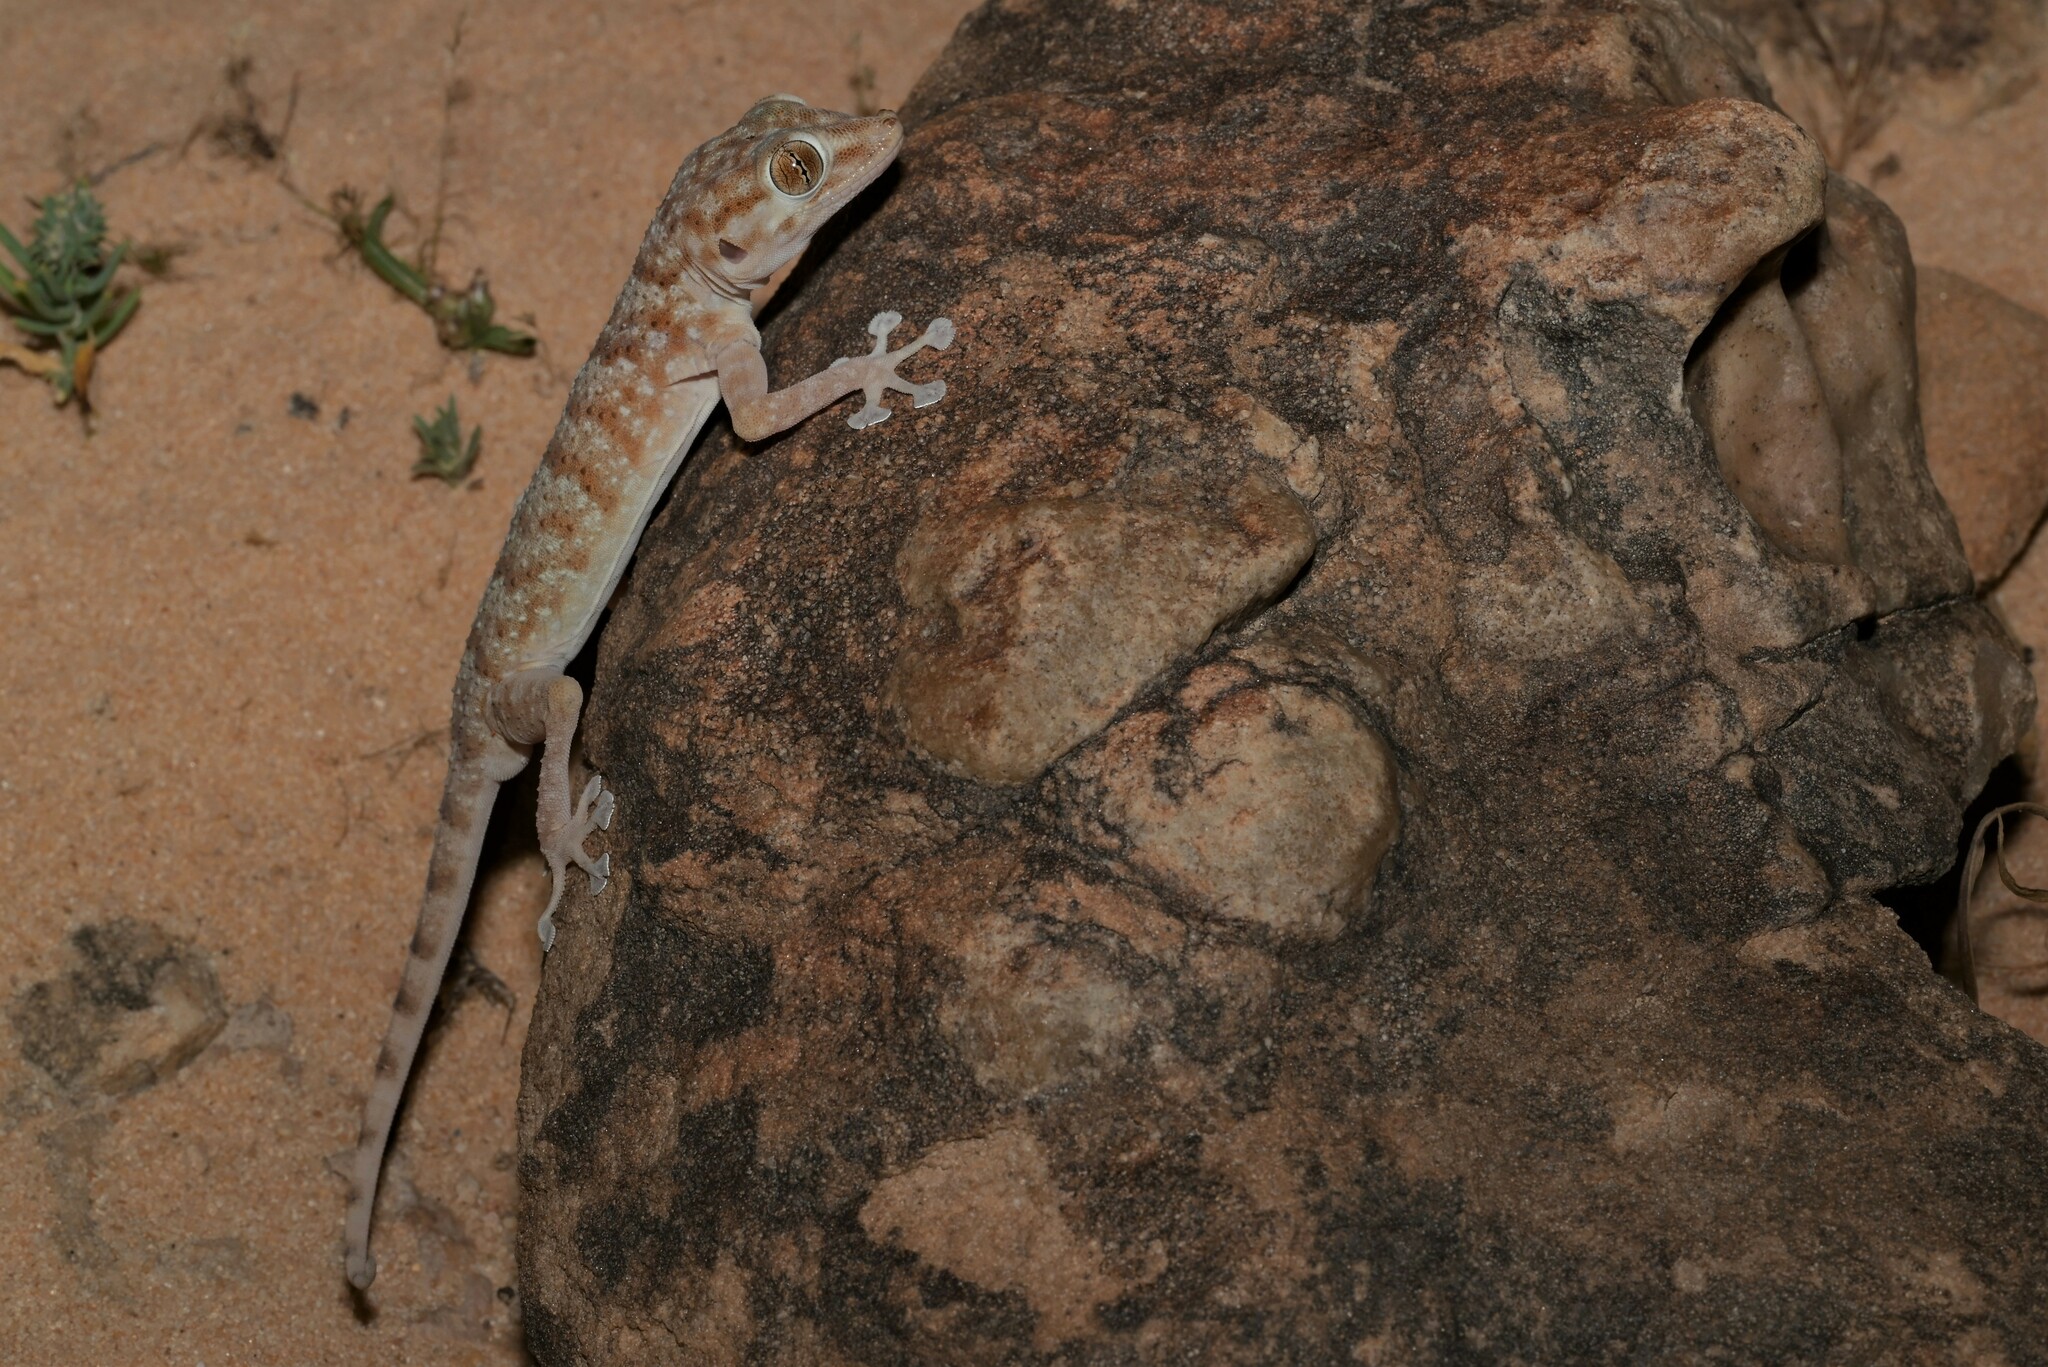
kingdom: Animalia
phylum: Chordata
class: Squamata
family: Phyllodactylidae
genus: Ptyodactylus
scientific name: Ptyodactylus hasselquistii
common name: Hasselquist’s fan-footed gecko
